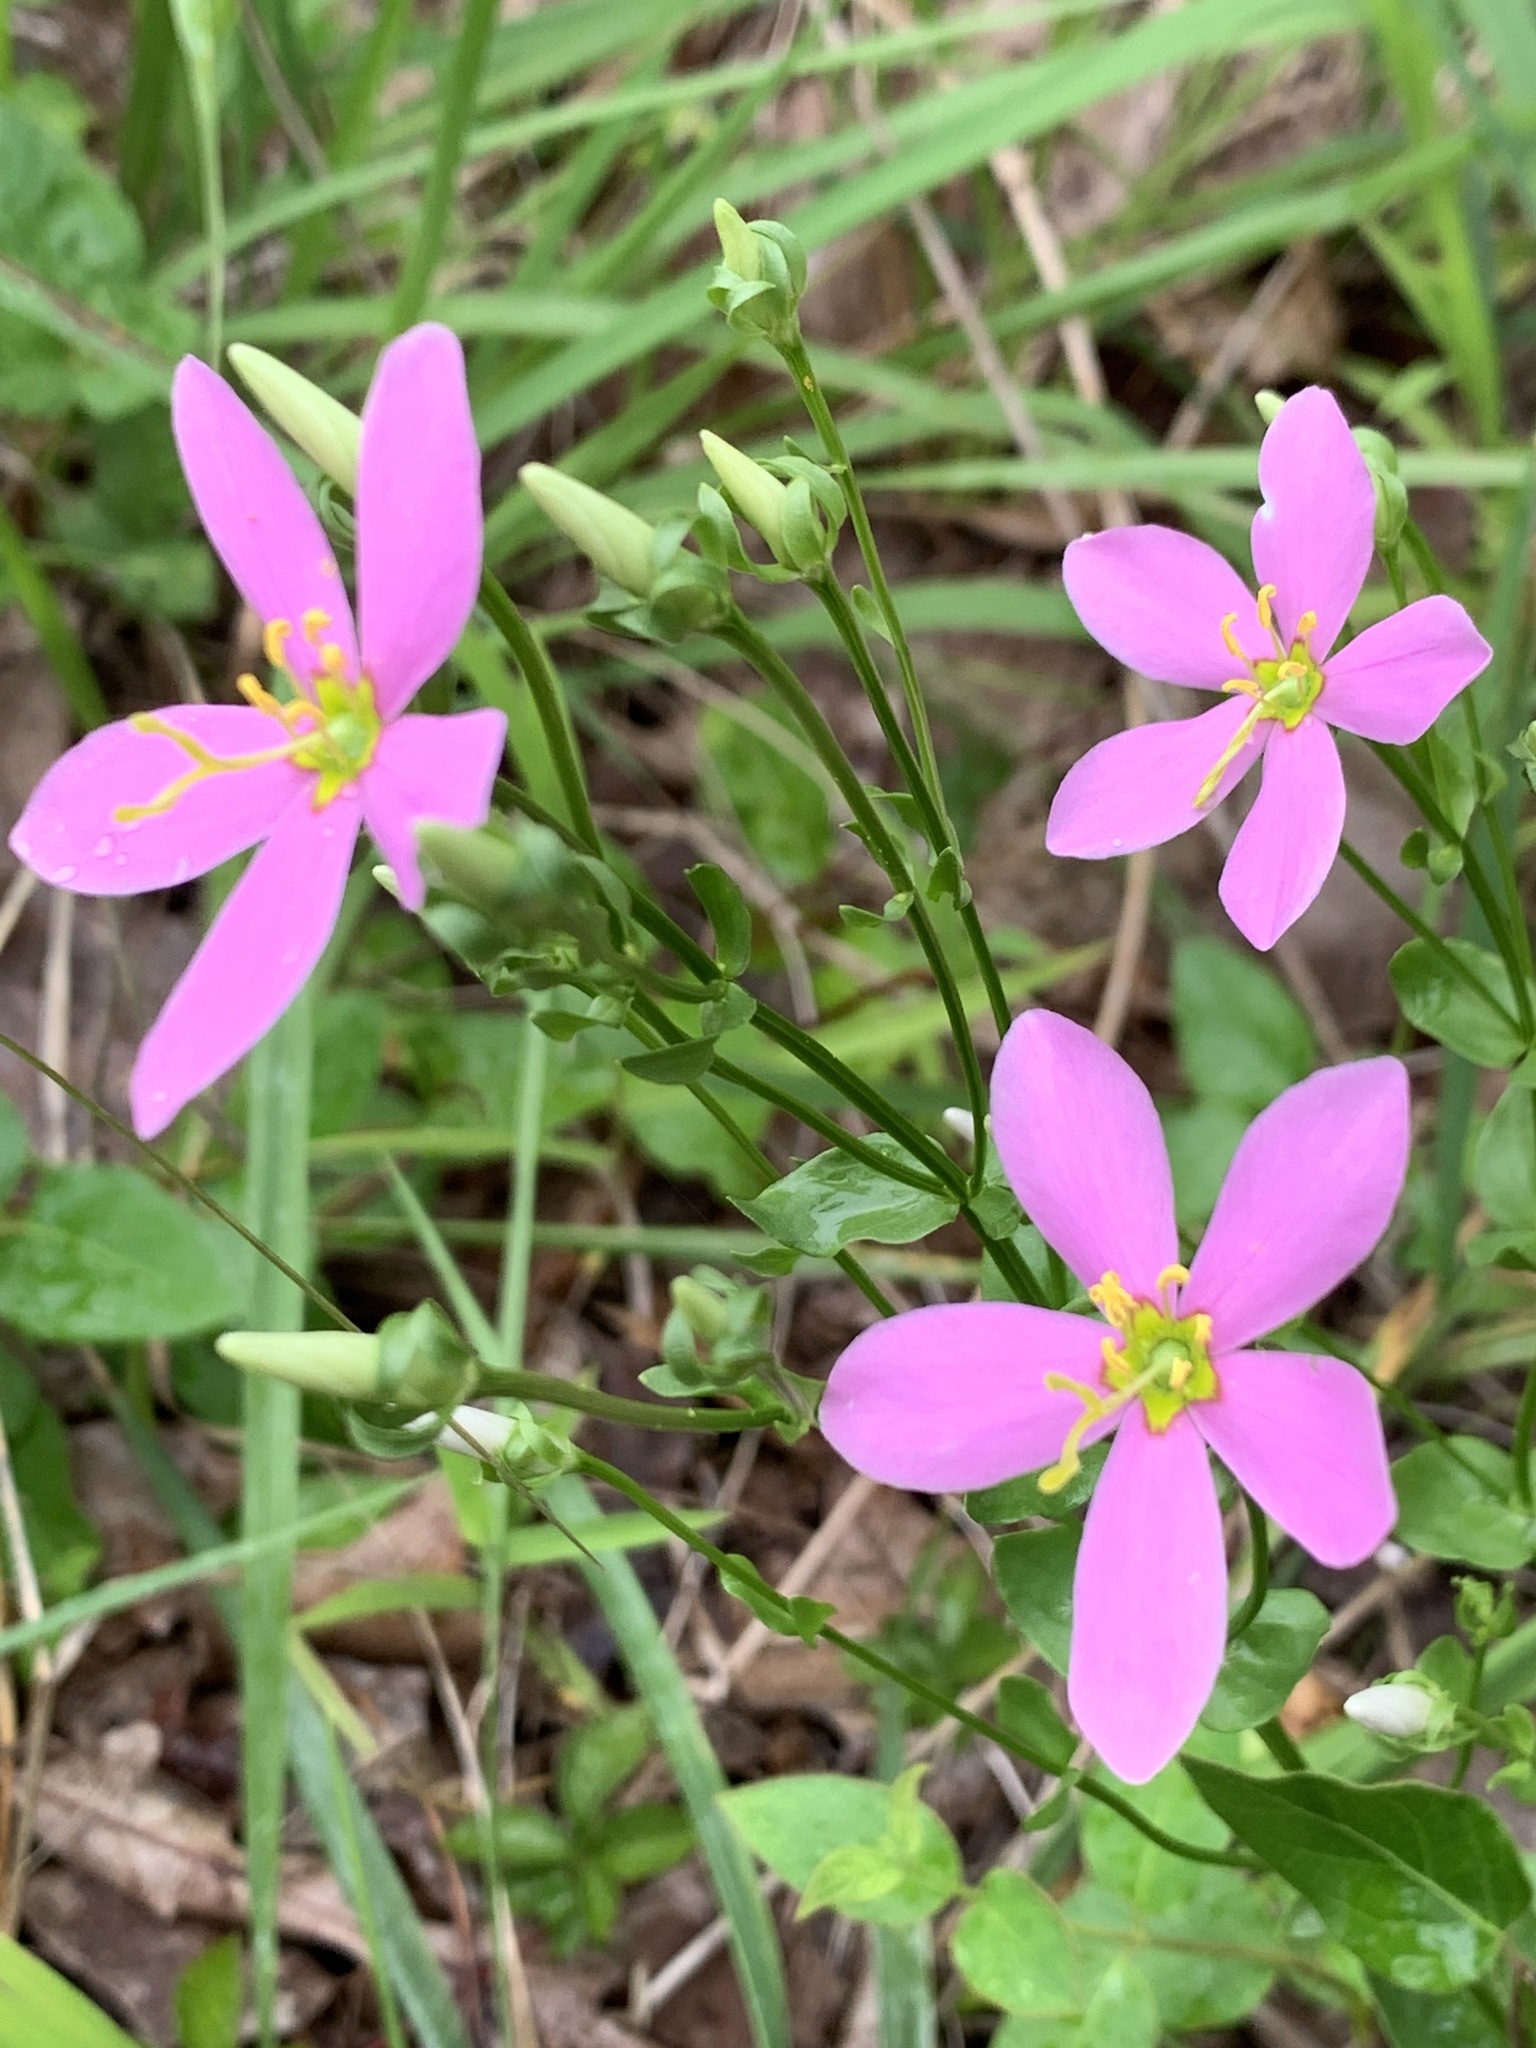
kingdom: Plantae
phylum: Tracheophyta
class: Magnoliopsida
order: Gentianales
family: Gentianaceae
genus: Sabatia
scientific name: Sabatia angularis
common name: Rose-pink
